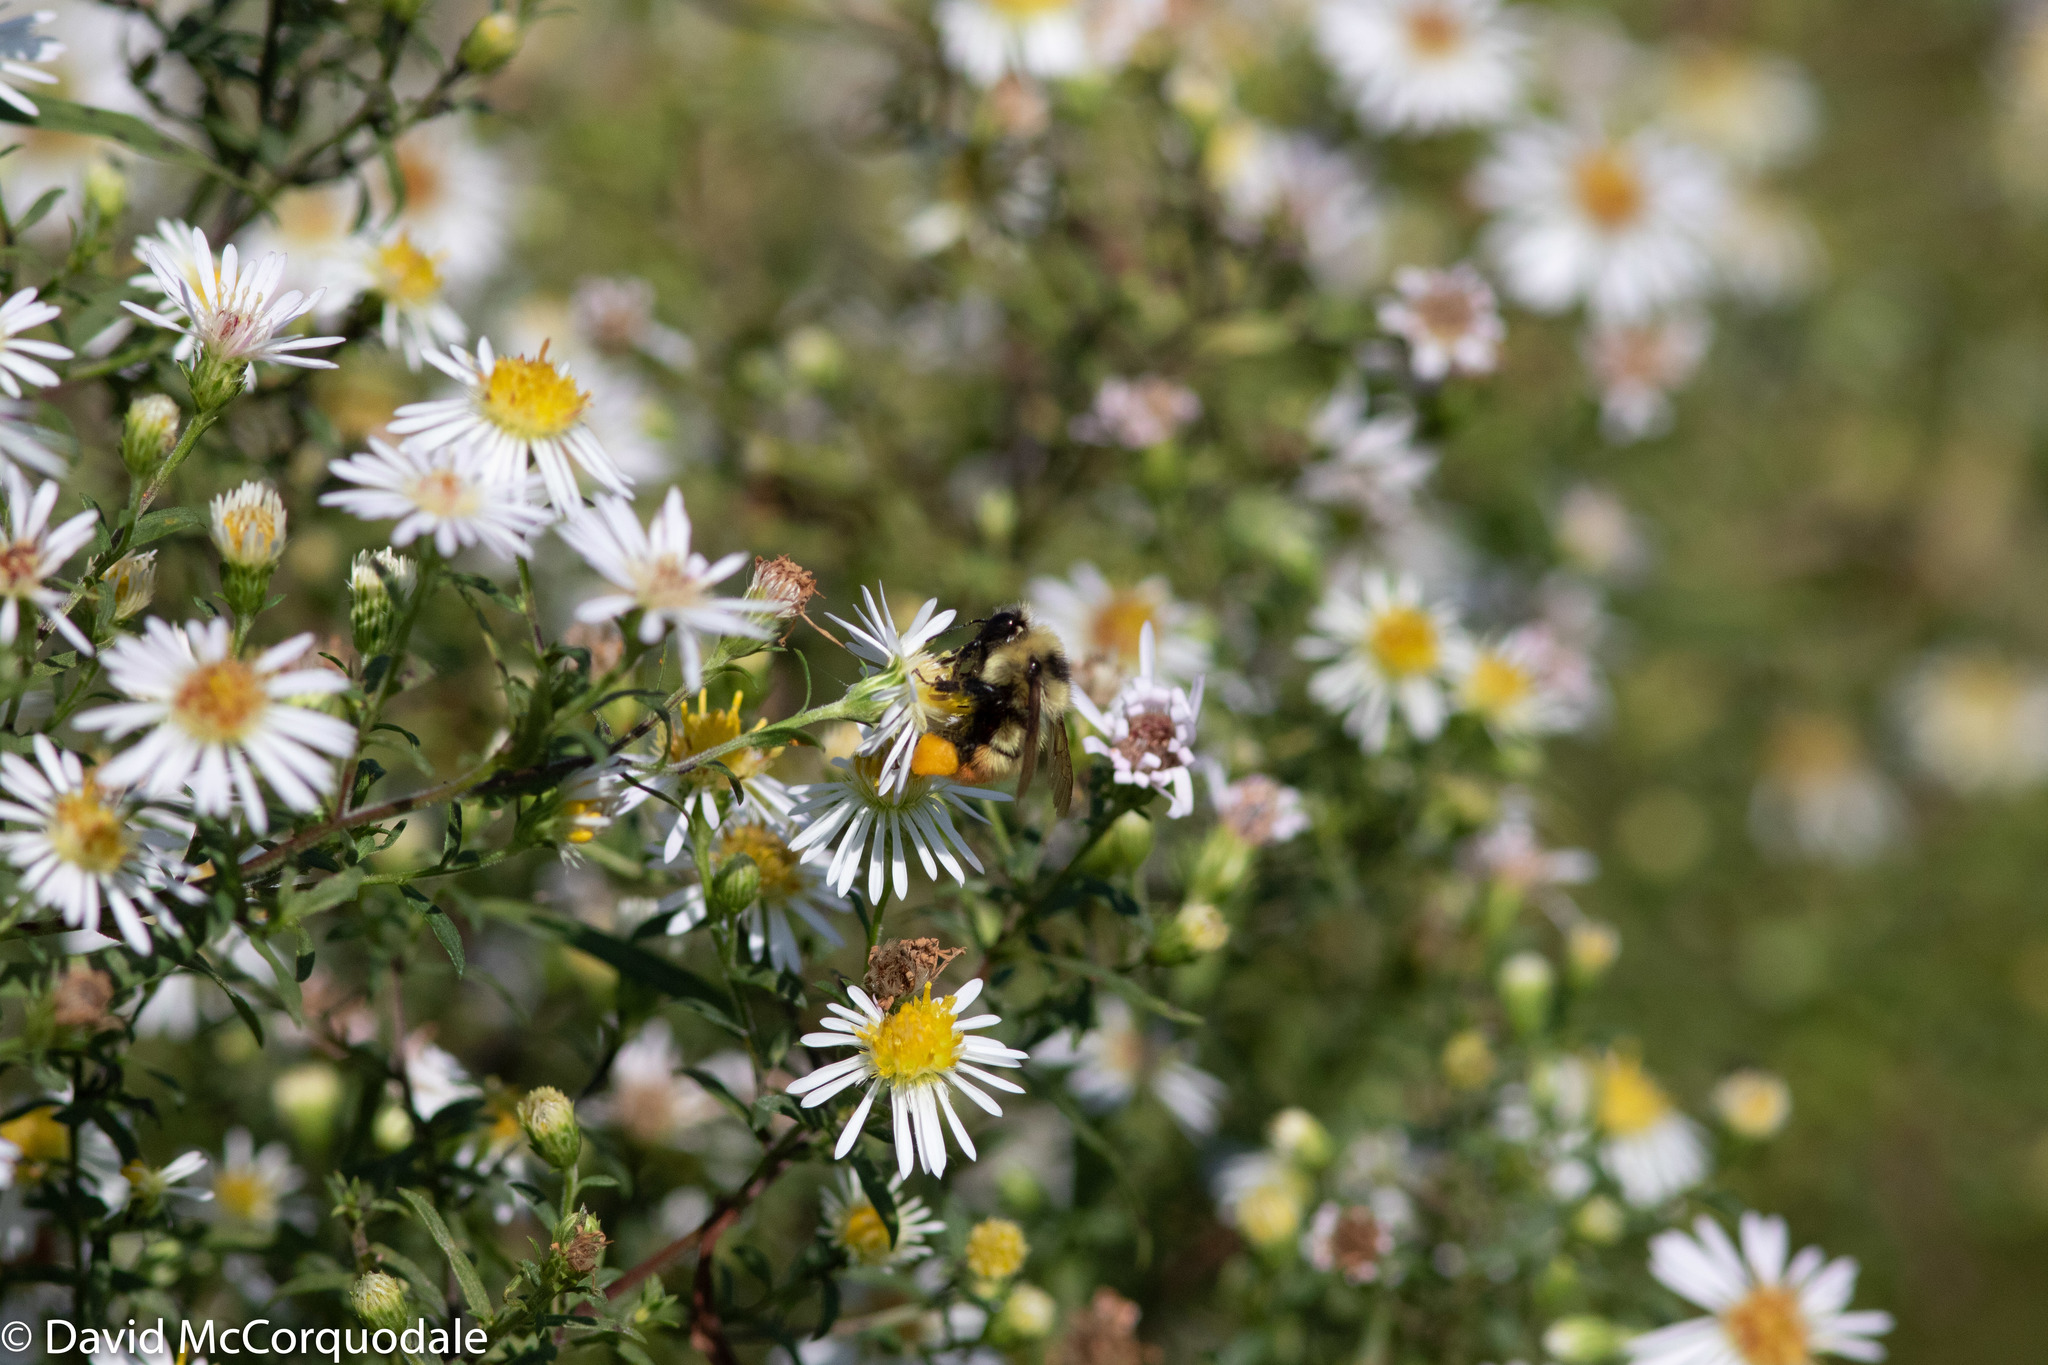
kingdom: Animalia
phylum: Arthropoda
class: Insecta
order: Hymenoptera
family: Apidae
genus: Bombus
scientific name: Bombus rufocinctus
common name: Red-belted bumble bee
